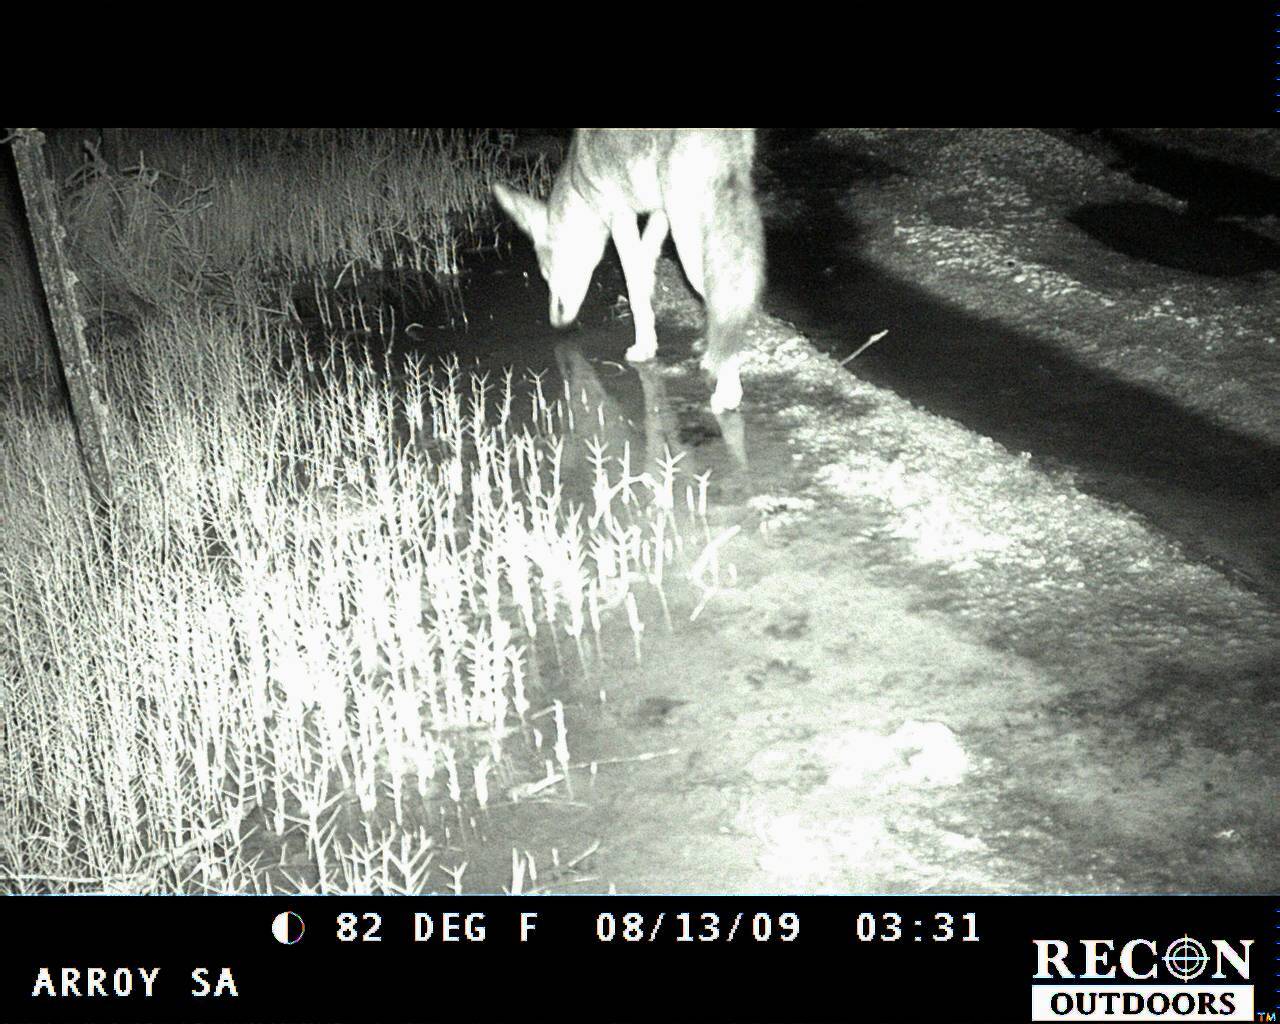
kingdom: Animalia
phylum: Chordata
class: Mammalia
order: Carnivora
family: Canidae
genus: Canis
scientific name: Canis latrans
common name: Coyote
